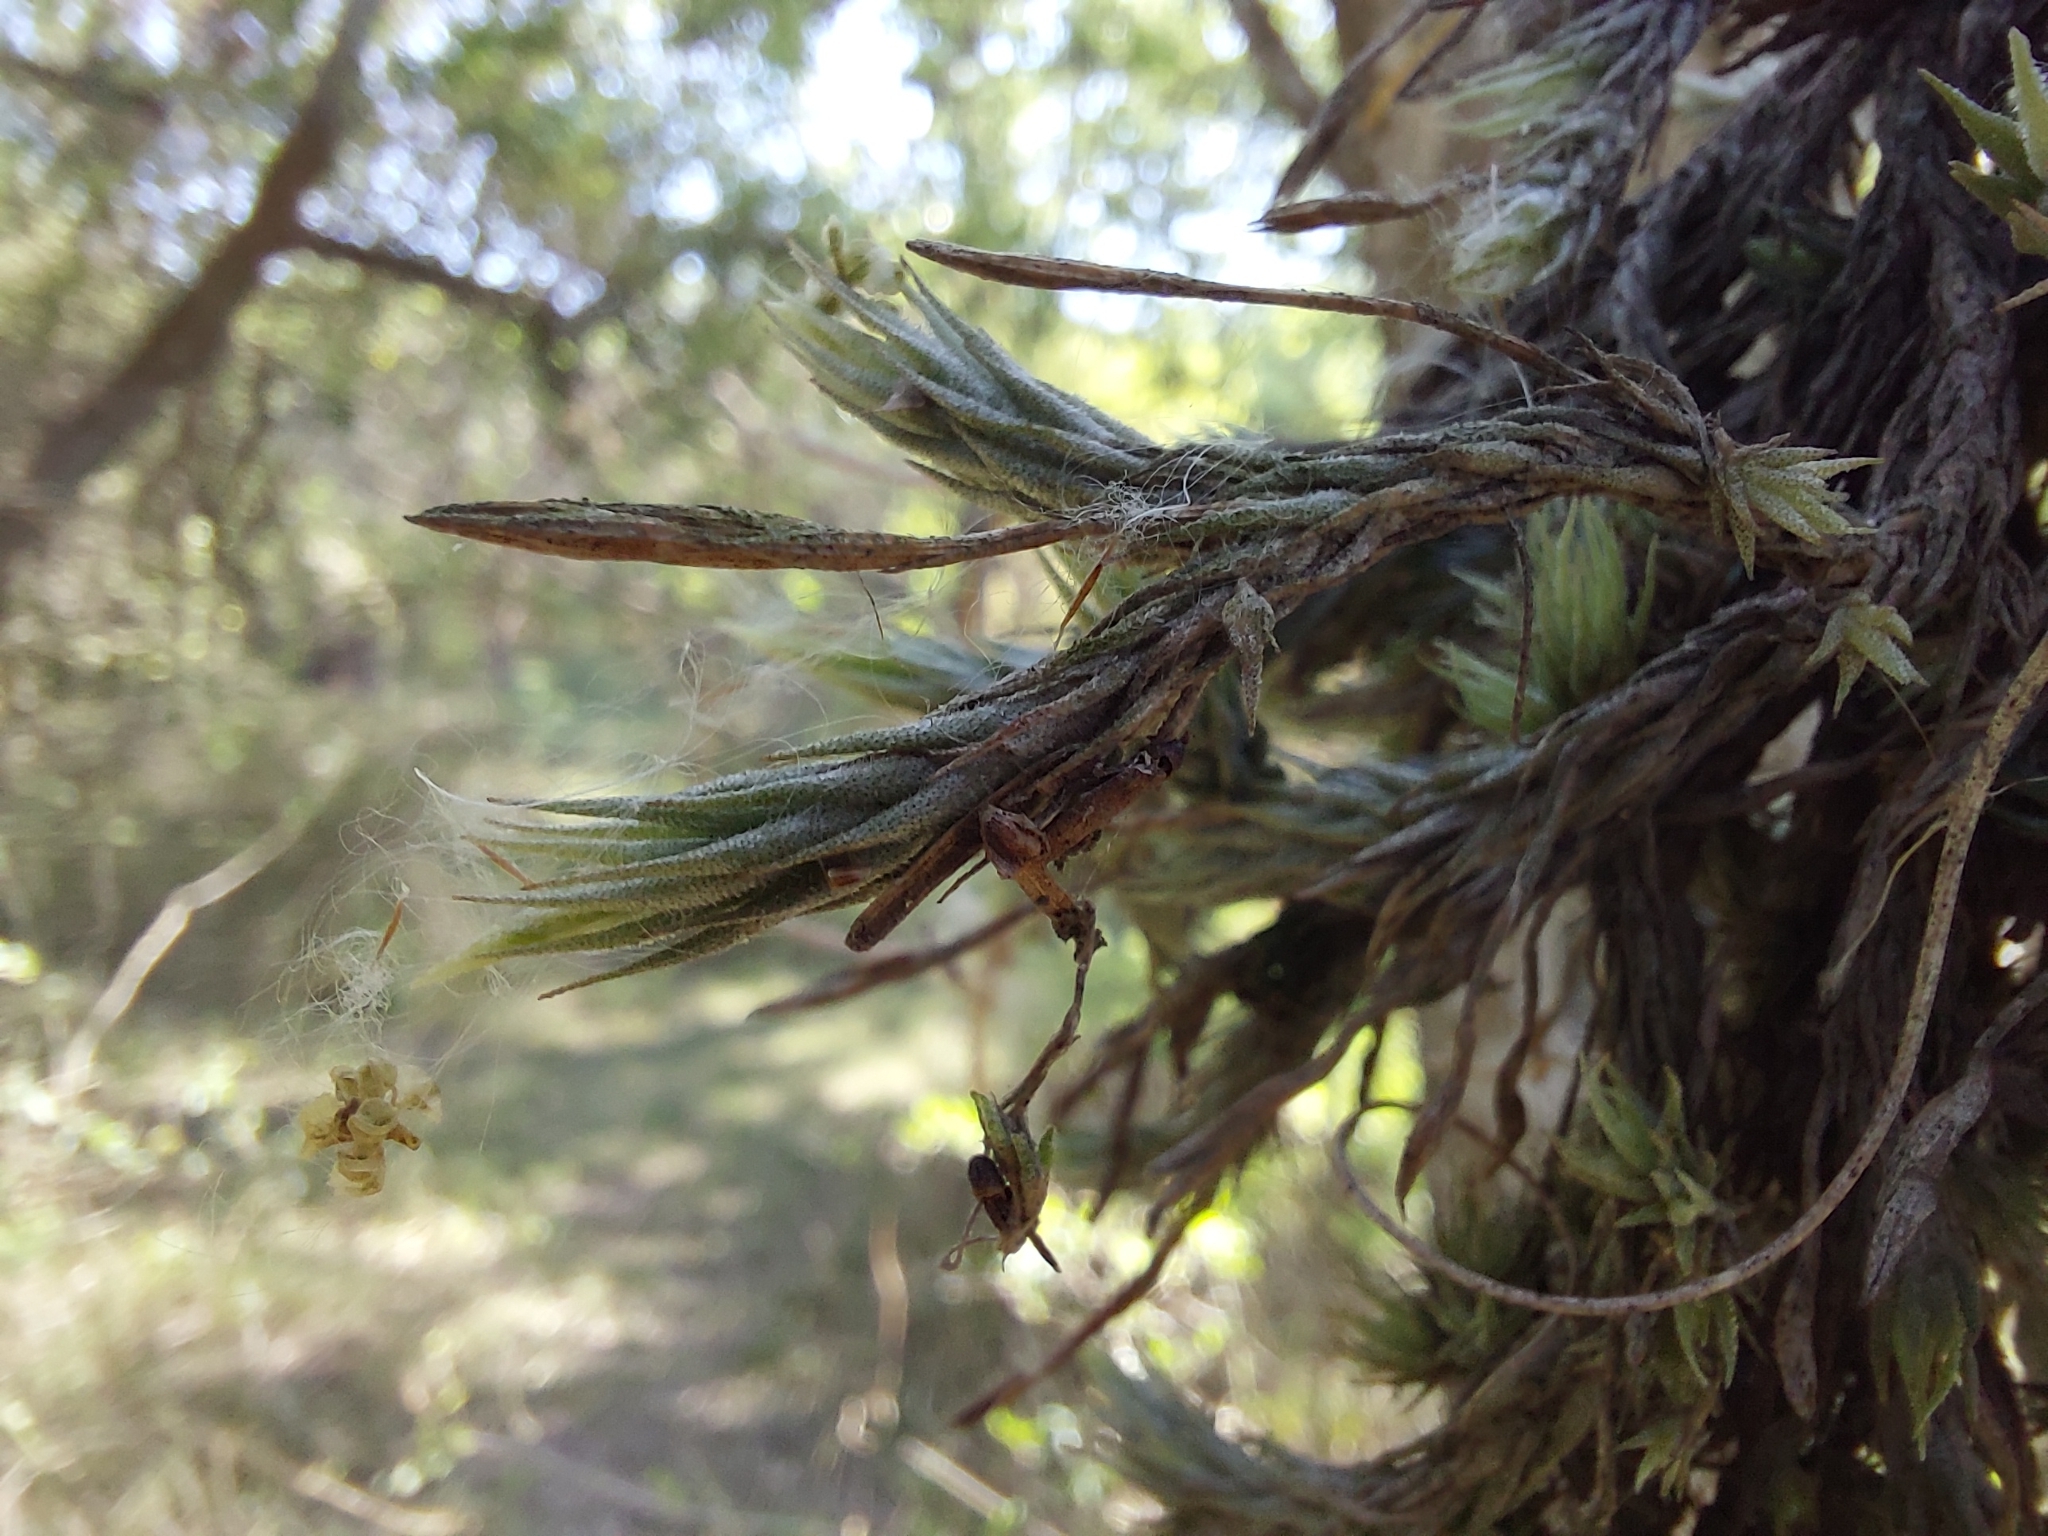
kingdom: Plantae
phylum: Tracheophyta
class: Liliopsida
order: Poales
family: Bromeliaceae
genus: Tillandsia
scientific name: Tillandsia tricholepis
